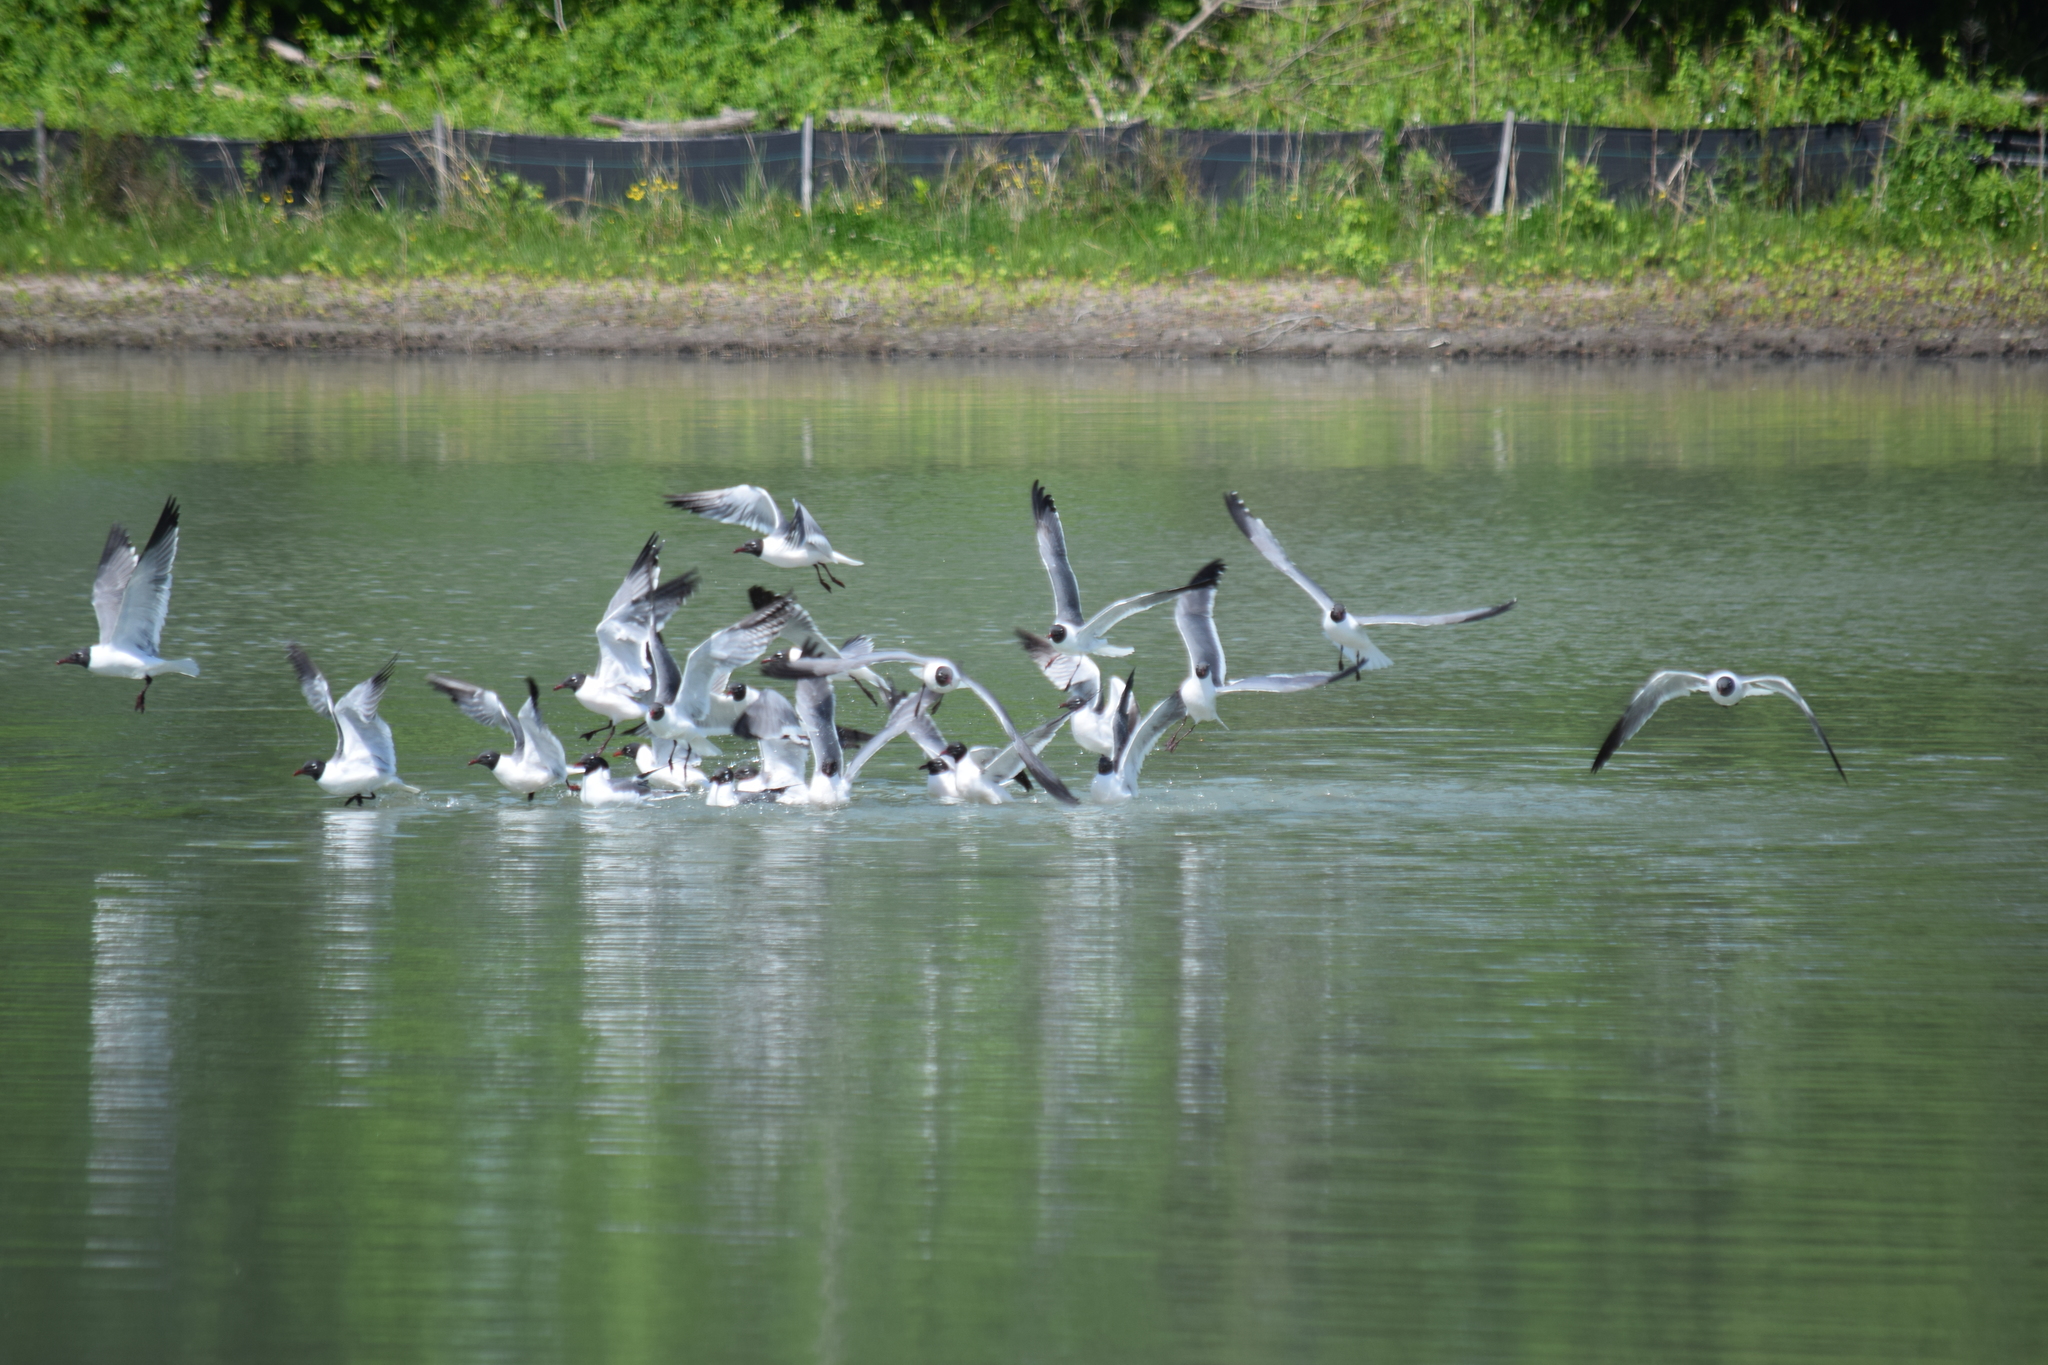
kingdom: Animalia
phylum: Chordata
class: Aves
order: Charadriiformes
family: Laridae
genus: Leucophaeus
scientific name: Leucophaeus atricilla
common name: Laughing gull
